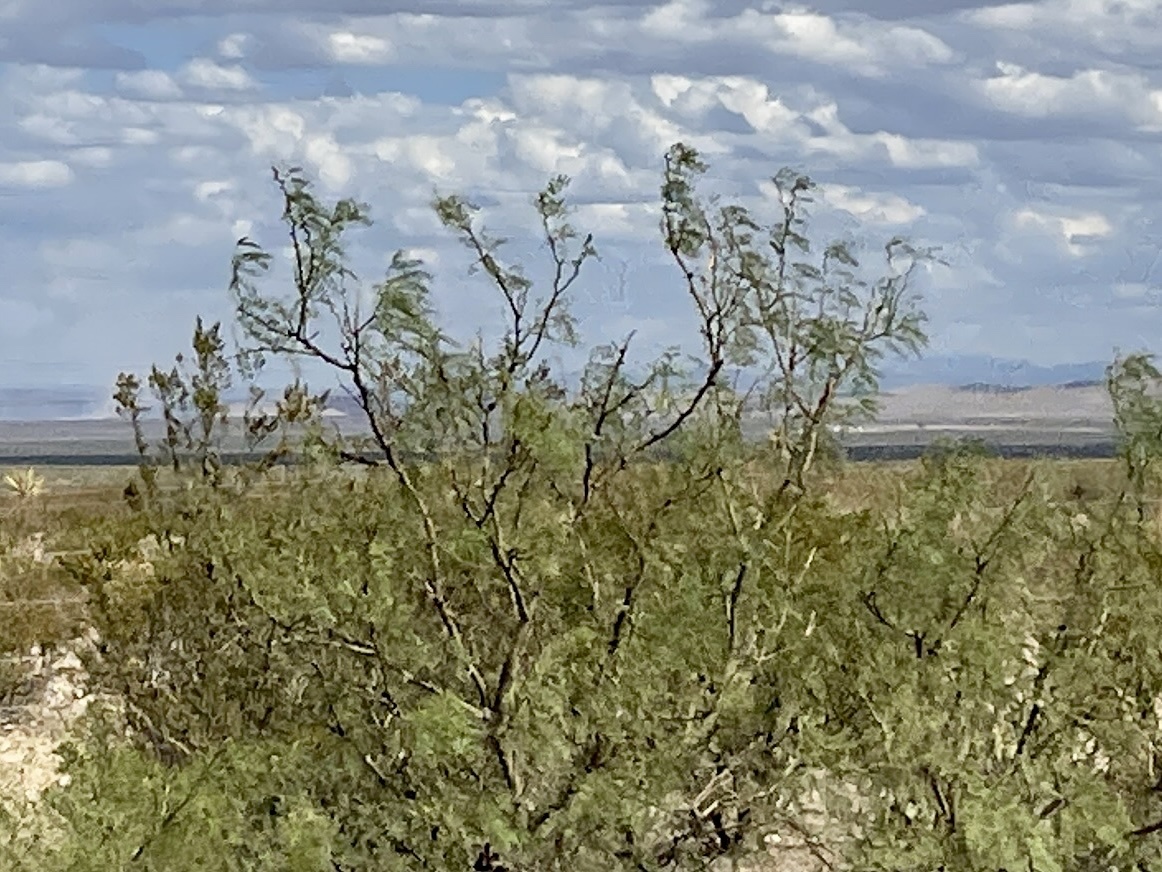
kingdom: Plantae
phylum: Tracheophyta
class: Magnoliopsida
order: Fabales
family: Fabaceae
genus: Prosopis
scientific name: Prosopis glandulosa
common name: Honey mesquite
